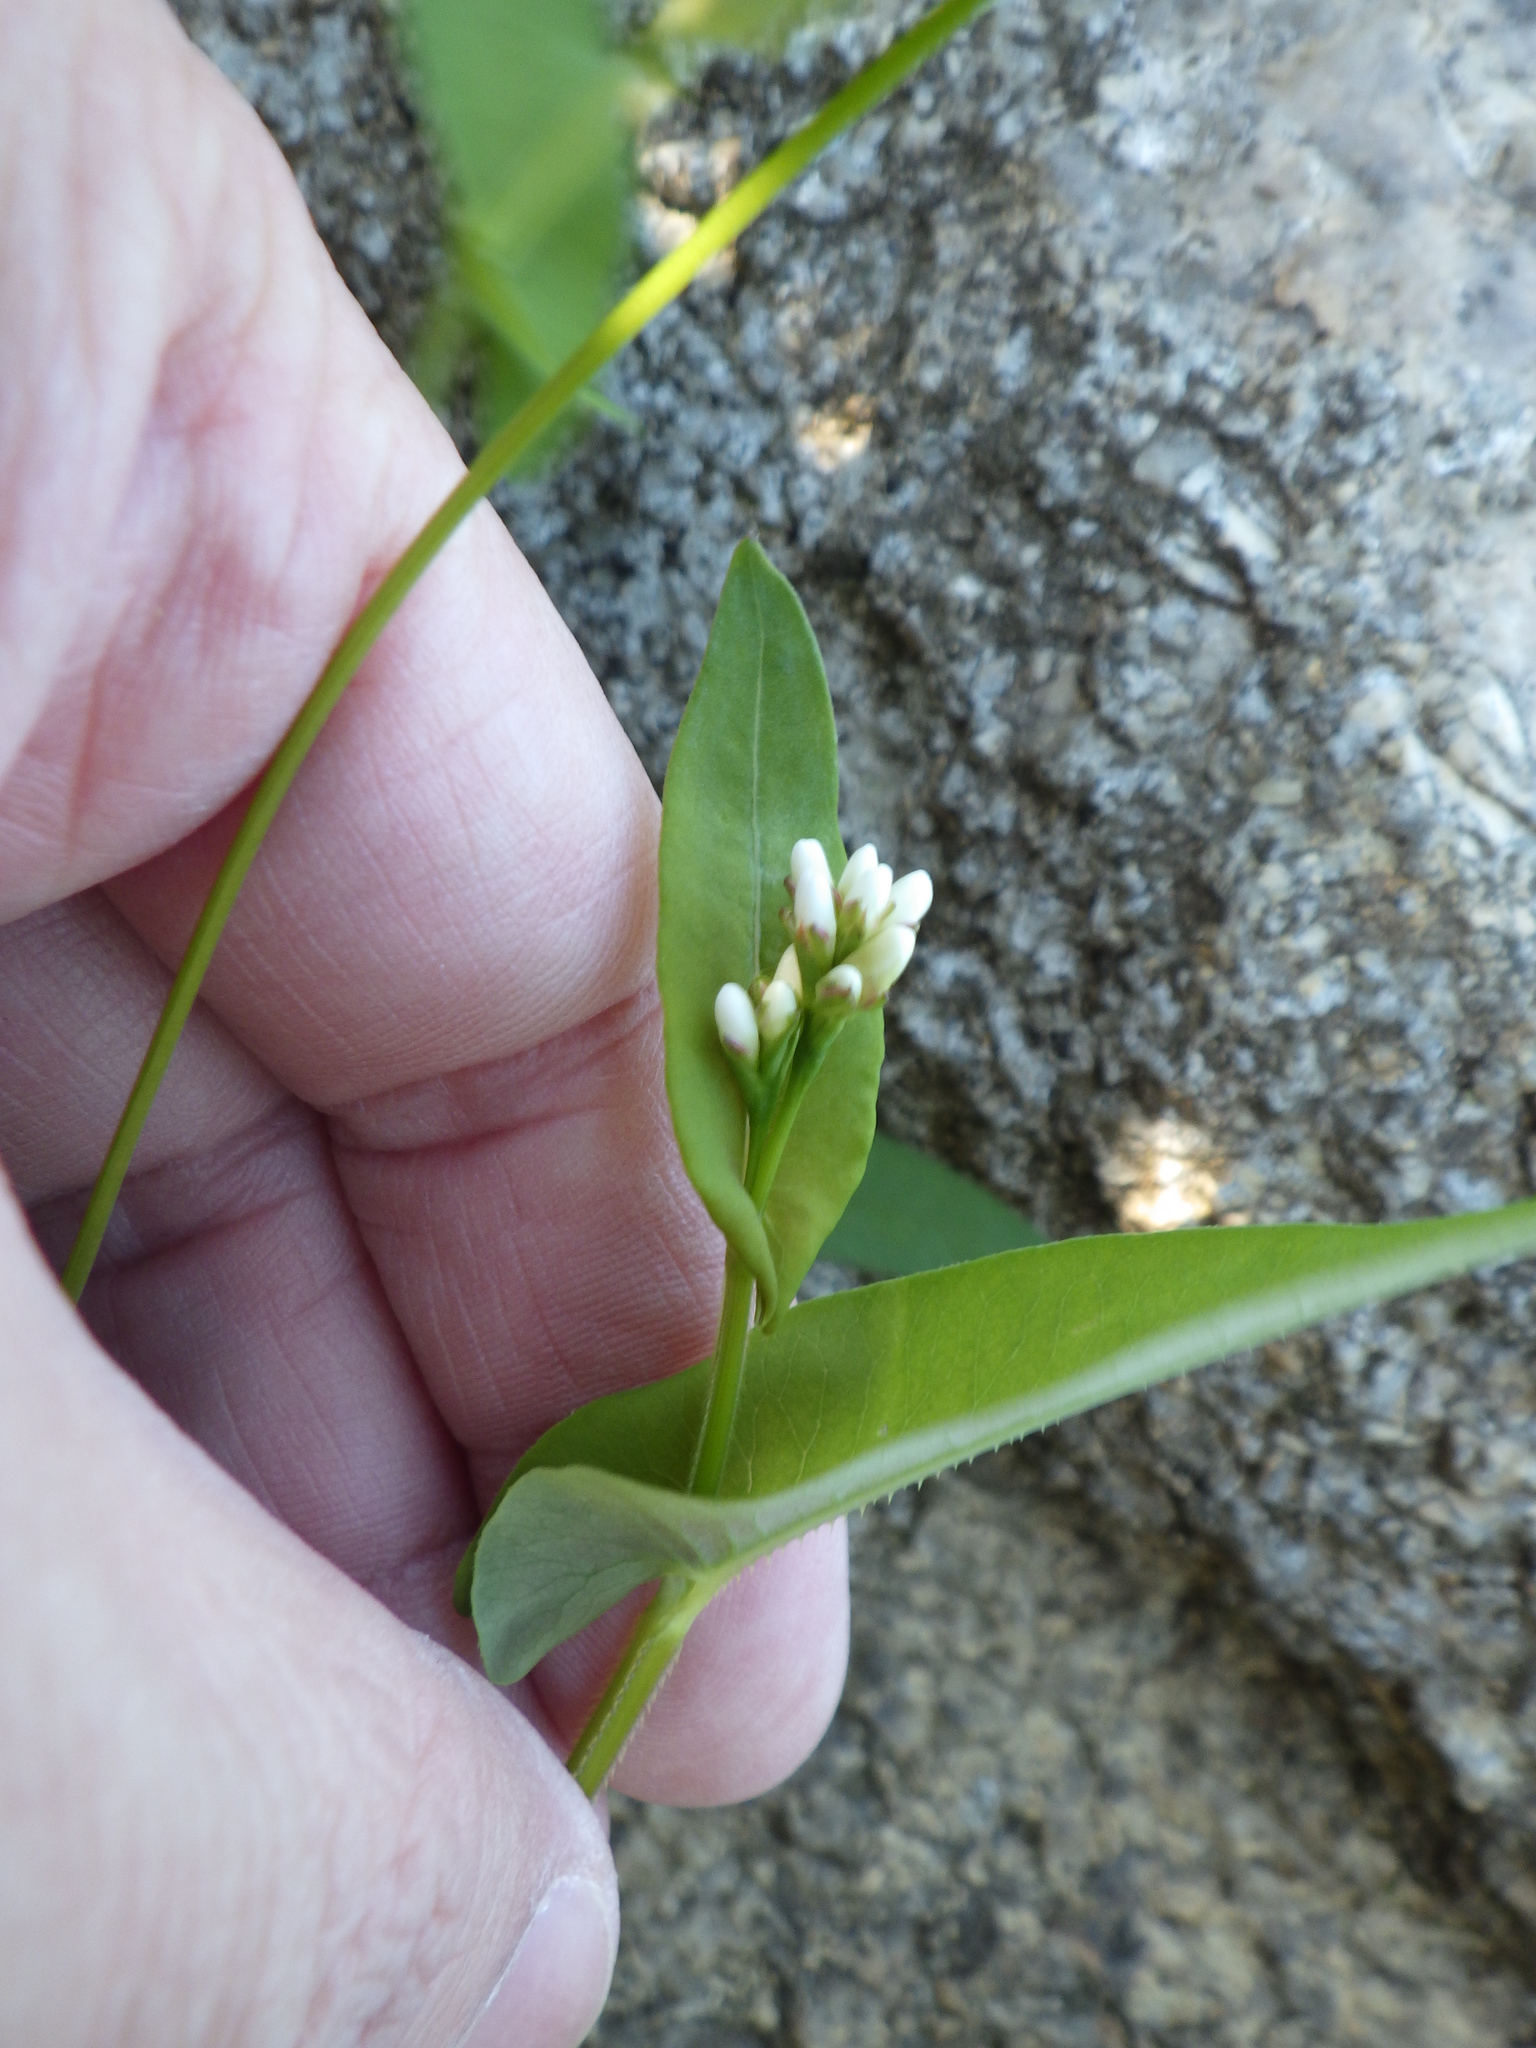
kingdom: Plantae
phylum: Tracheophyta
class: Magnoliopsida
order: Caryophyllales
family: Polygonaceae
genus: Persicaria
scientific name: Persicaria sagittata
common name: American tearthumb
